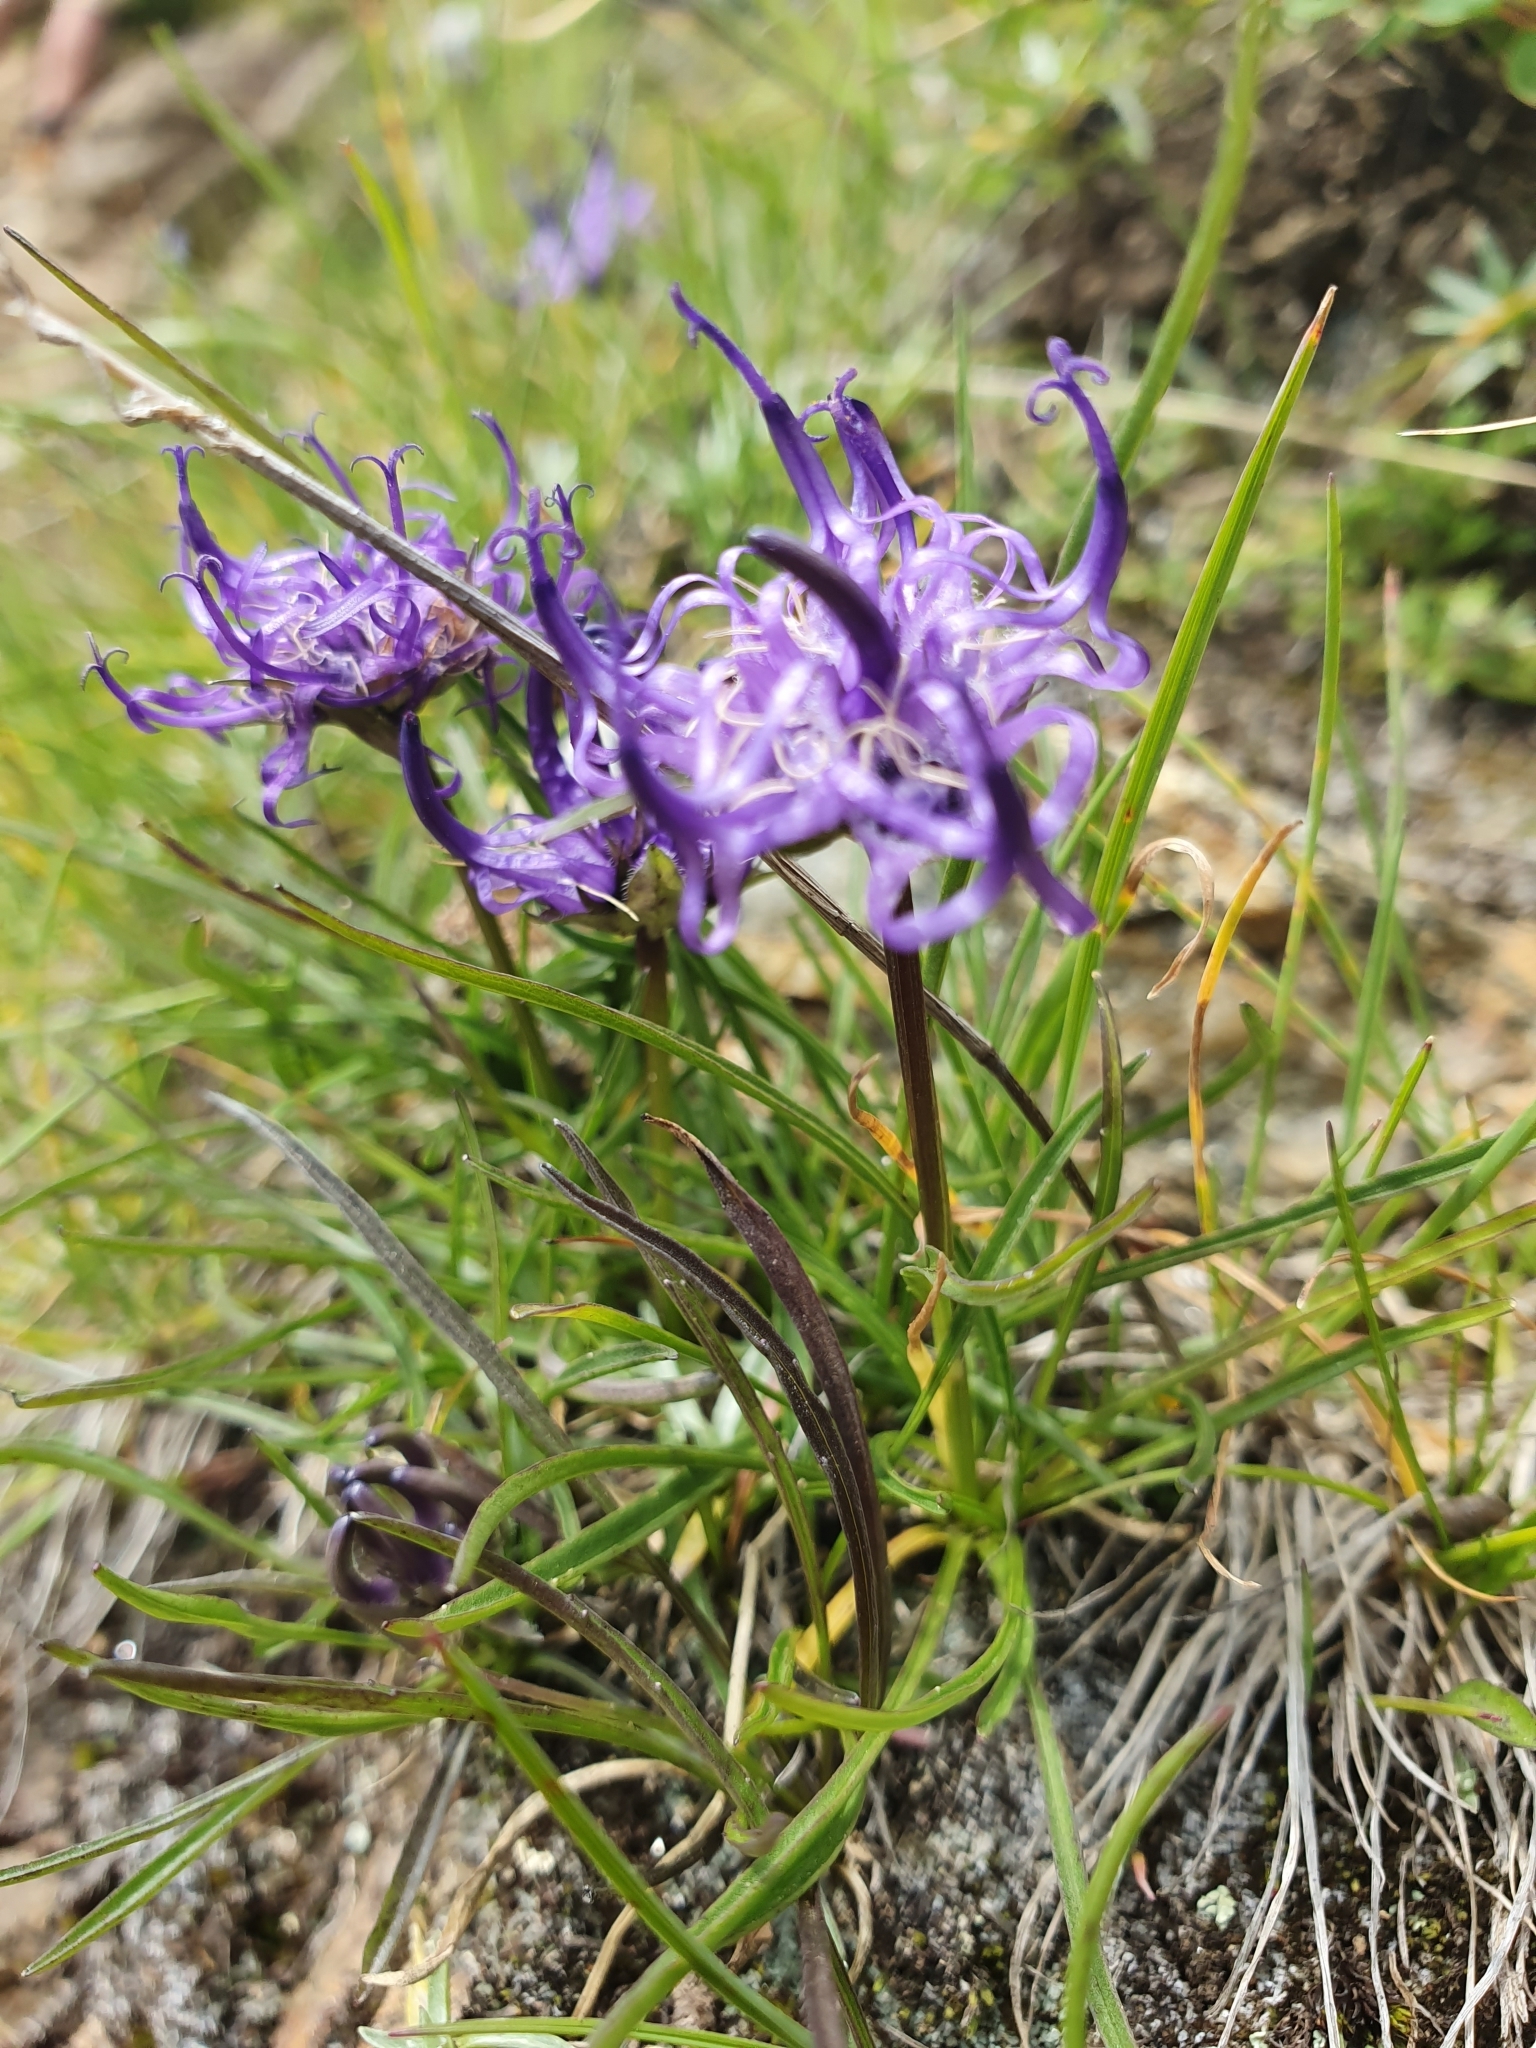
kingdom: Plantae
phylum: Tracheophyta
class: Magnoliopsida
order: Asterales
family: Campanulaceae
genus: Phyteuma
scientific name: Phyteuma hemisphaericum
